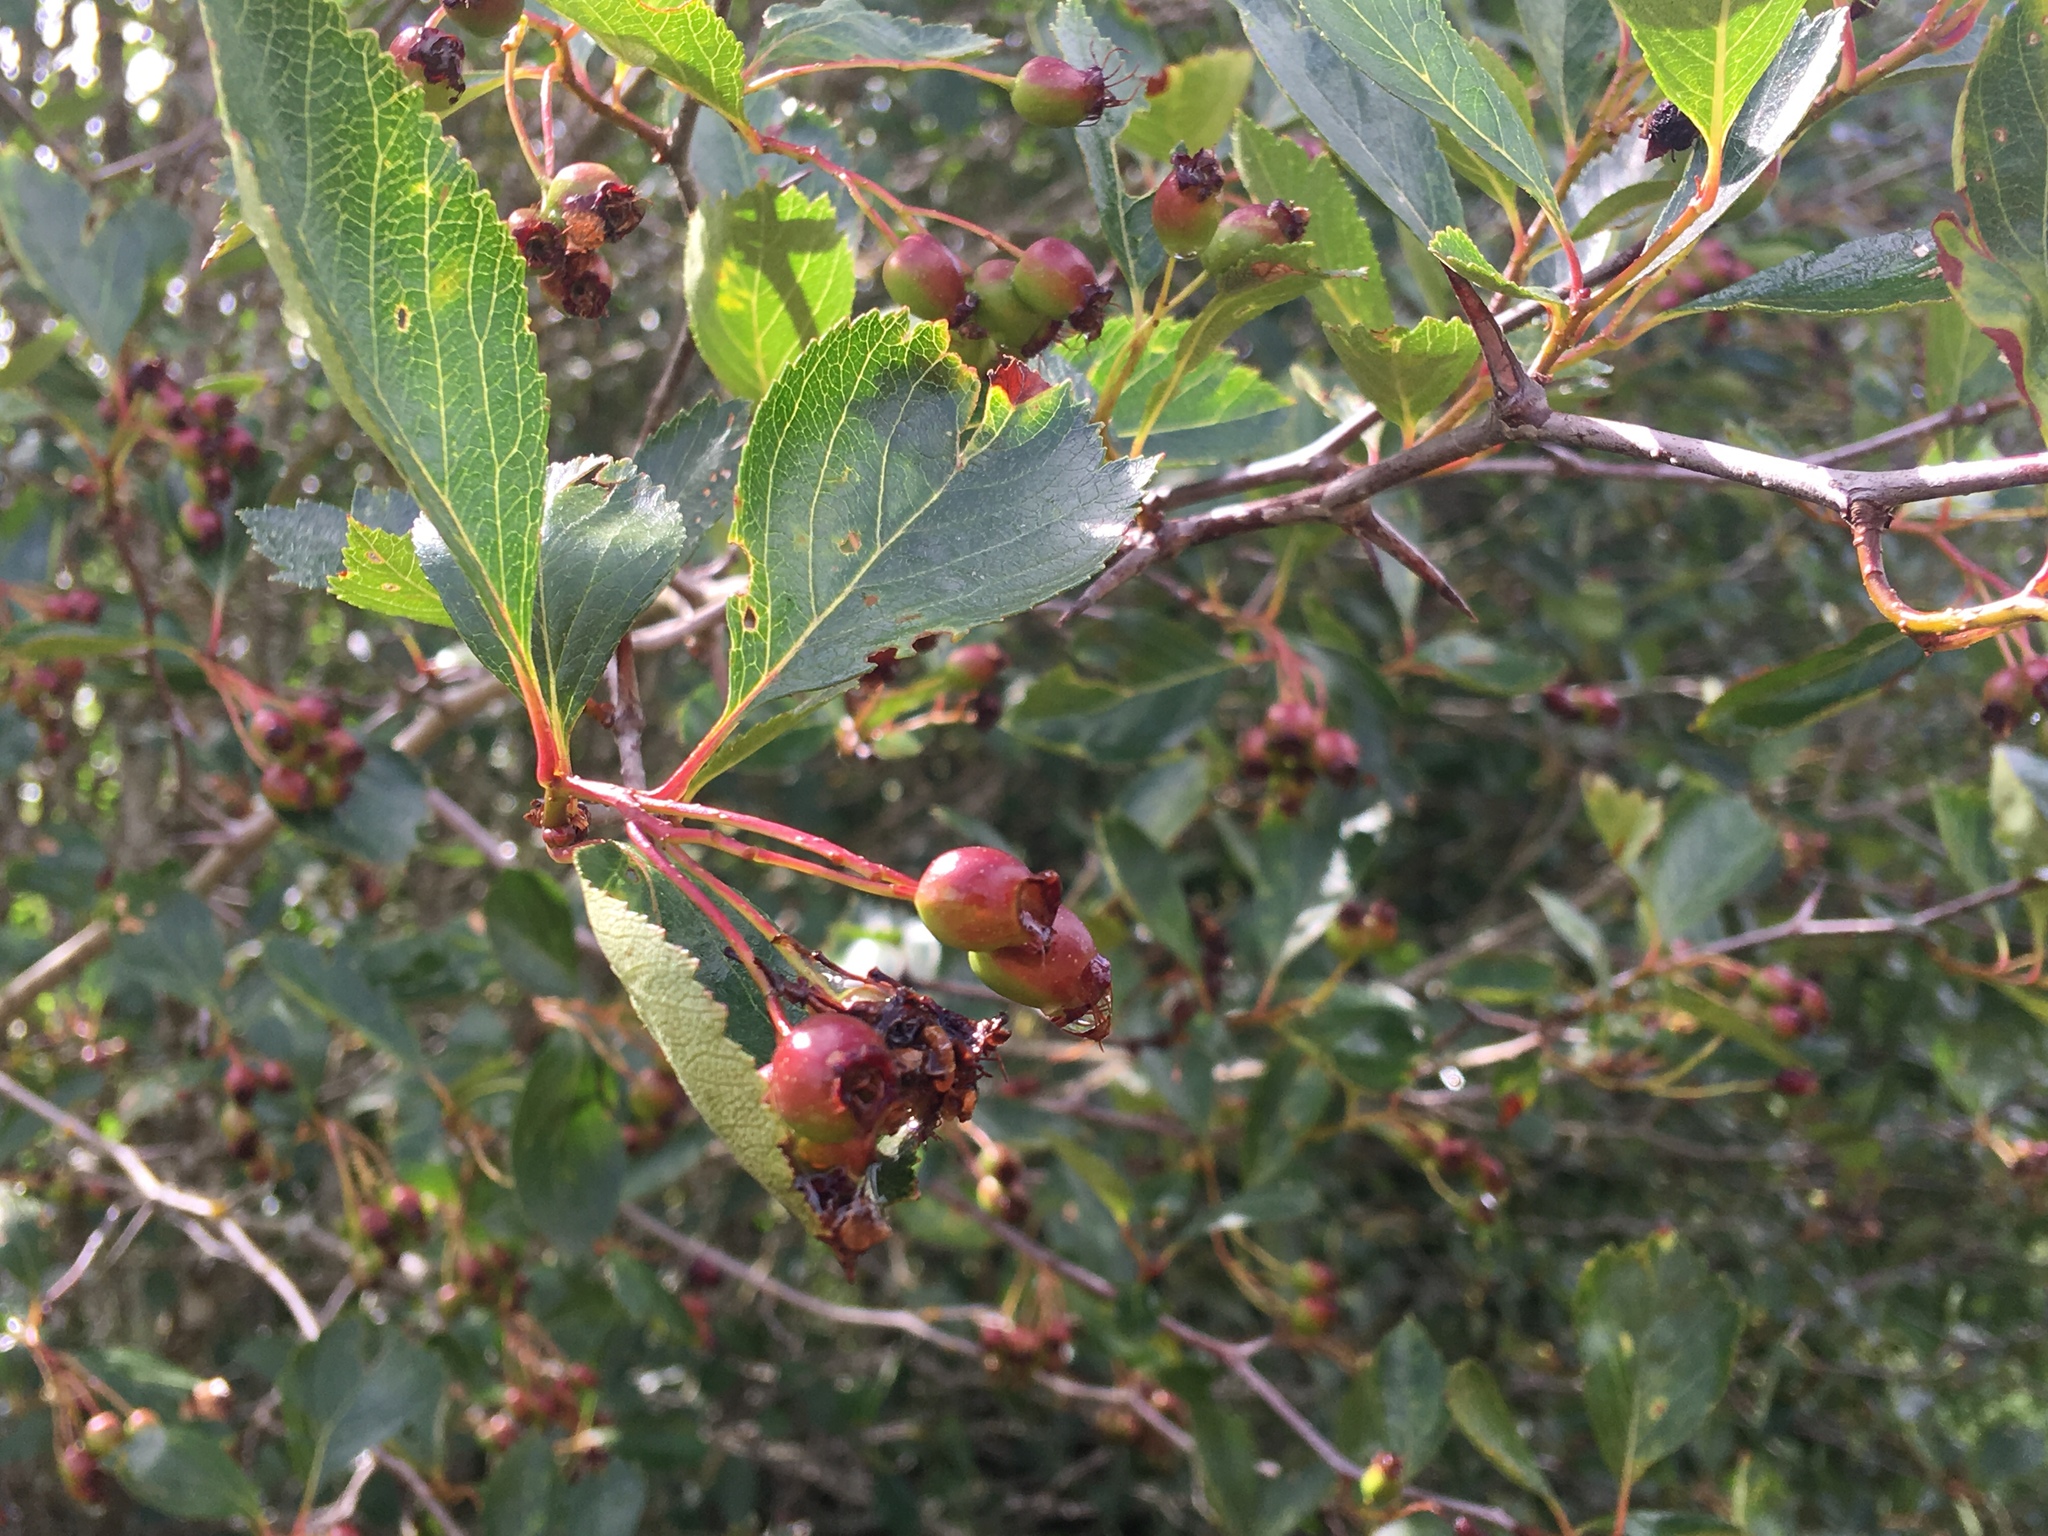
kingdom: Plantae
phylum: Tracheophyta
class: Magnoliopsida
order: Rosales
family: Rosaceae
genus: Crataegus
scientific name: Crataegus douglasii
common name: Black hawthorn
